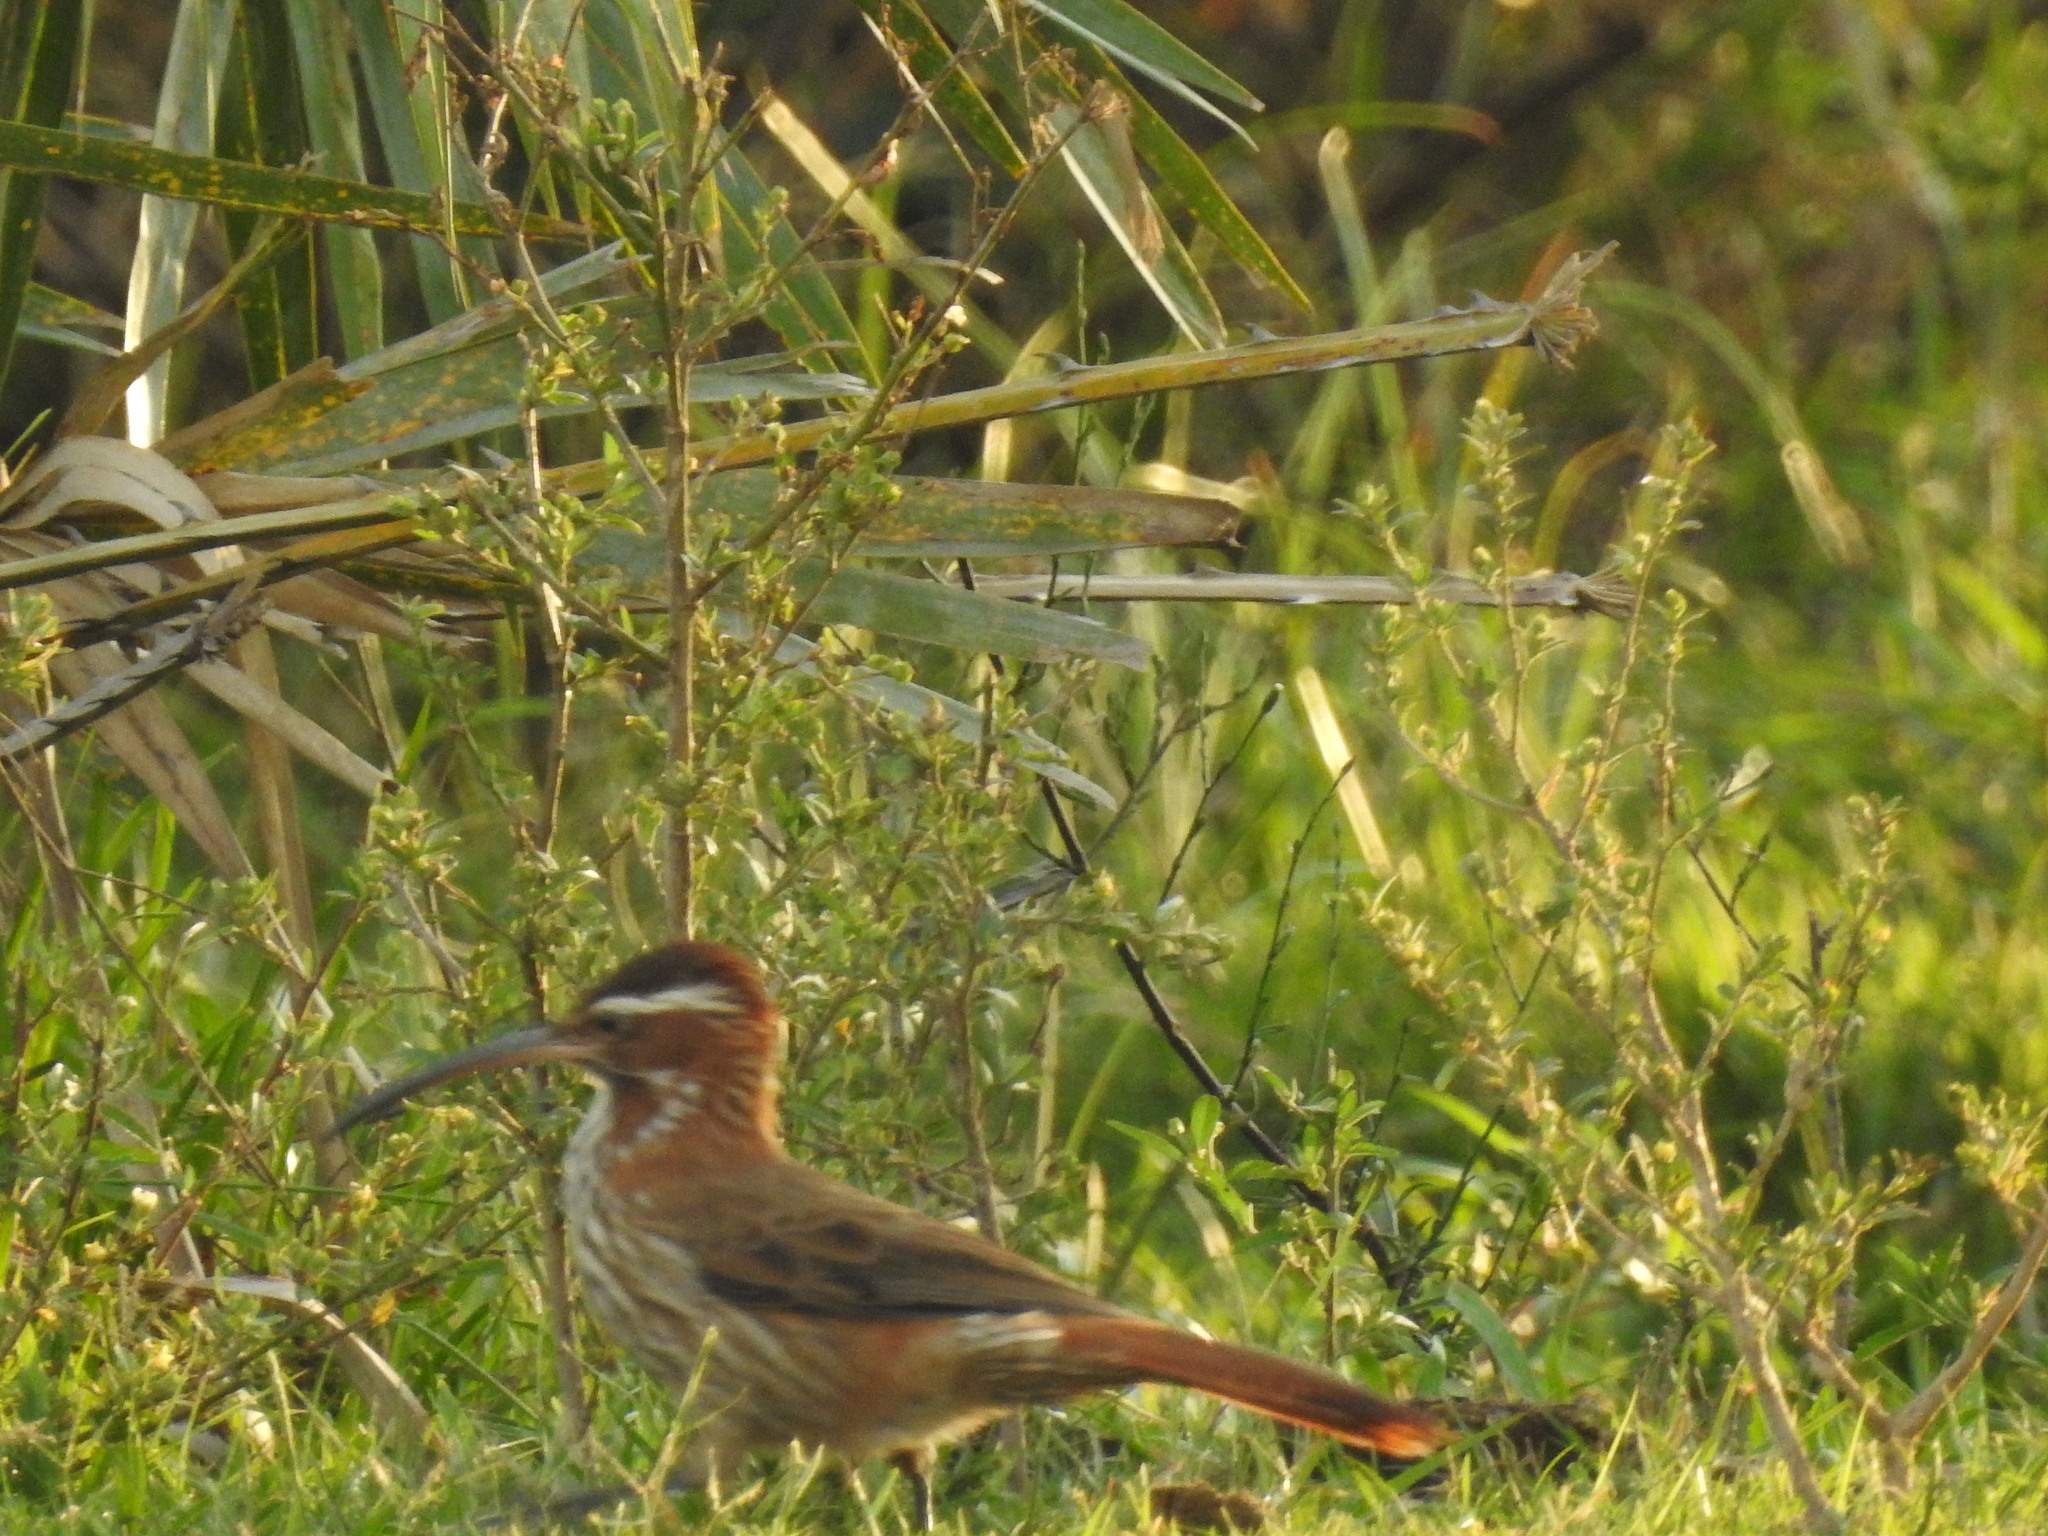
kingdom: Animalia
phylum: Chordata
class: Aves
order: Passeriformes
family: Furnariidae
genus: Drymornis
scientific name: Drymornis bridgesii
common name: Scimitar-billed woodcreeper
